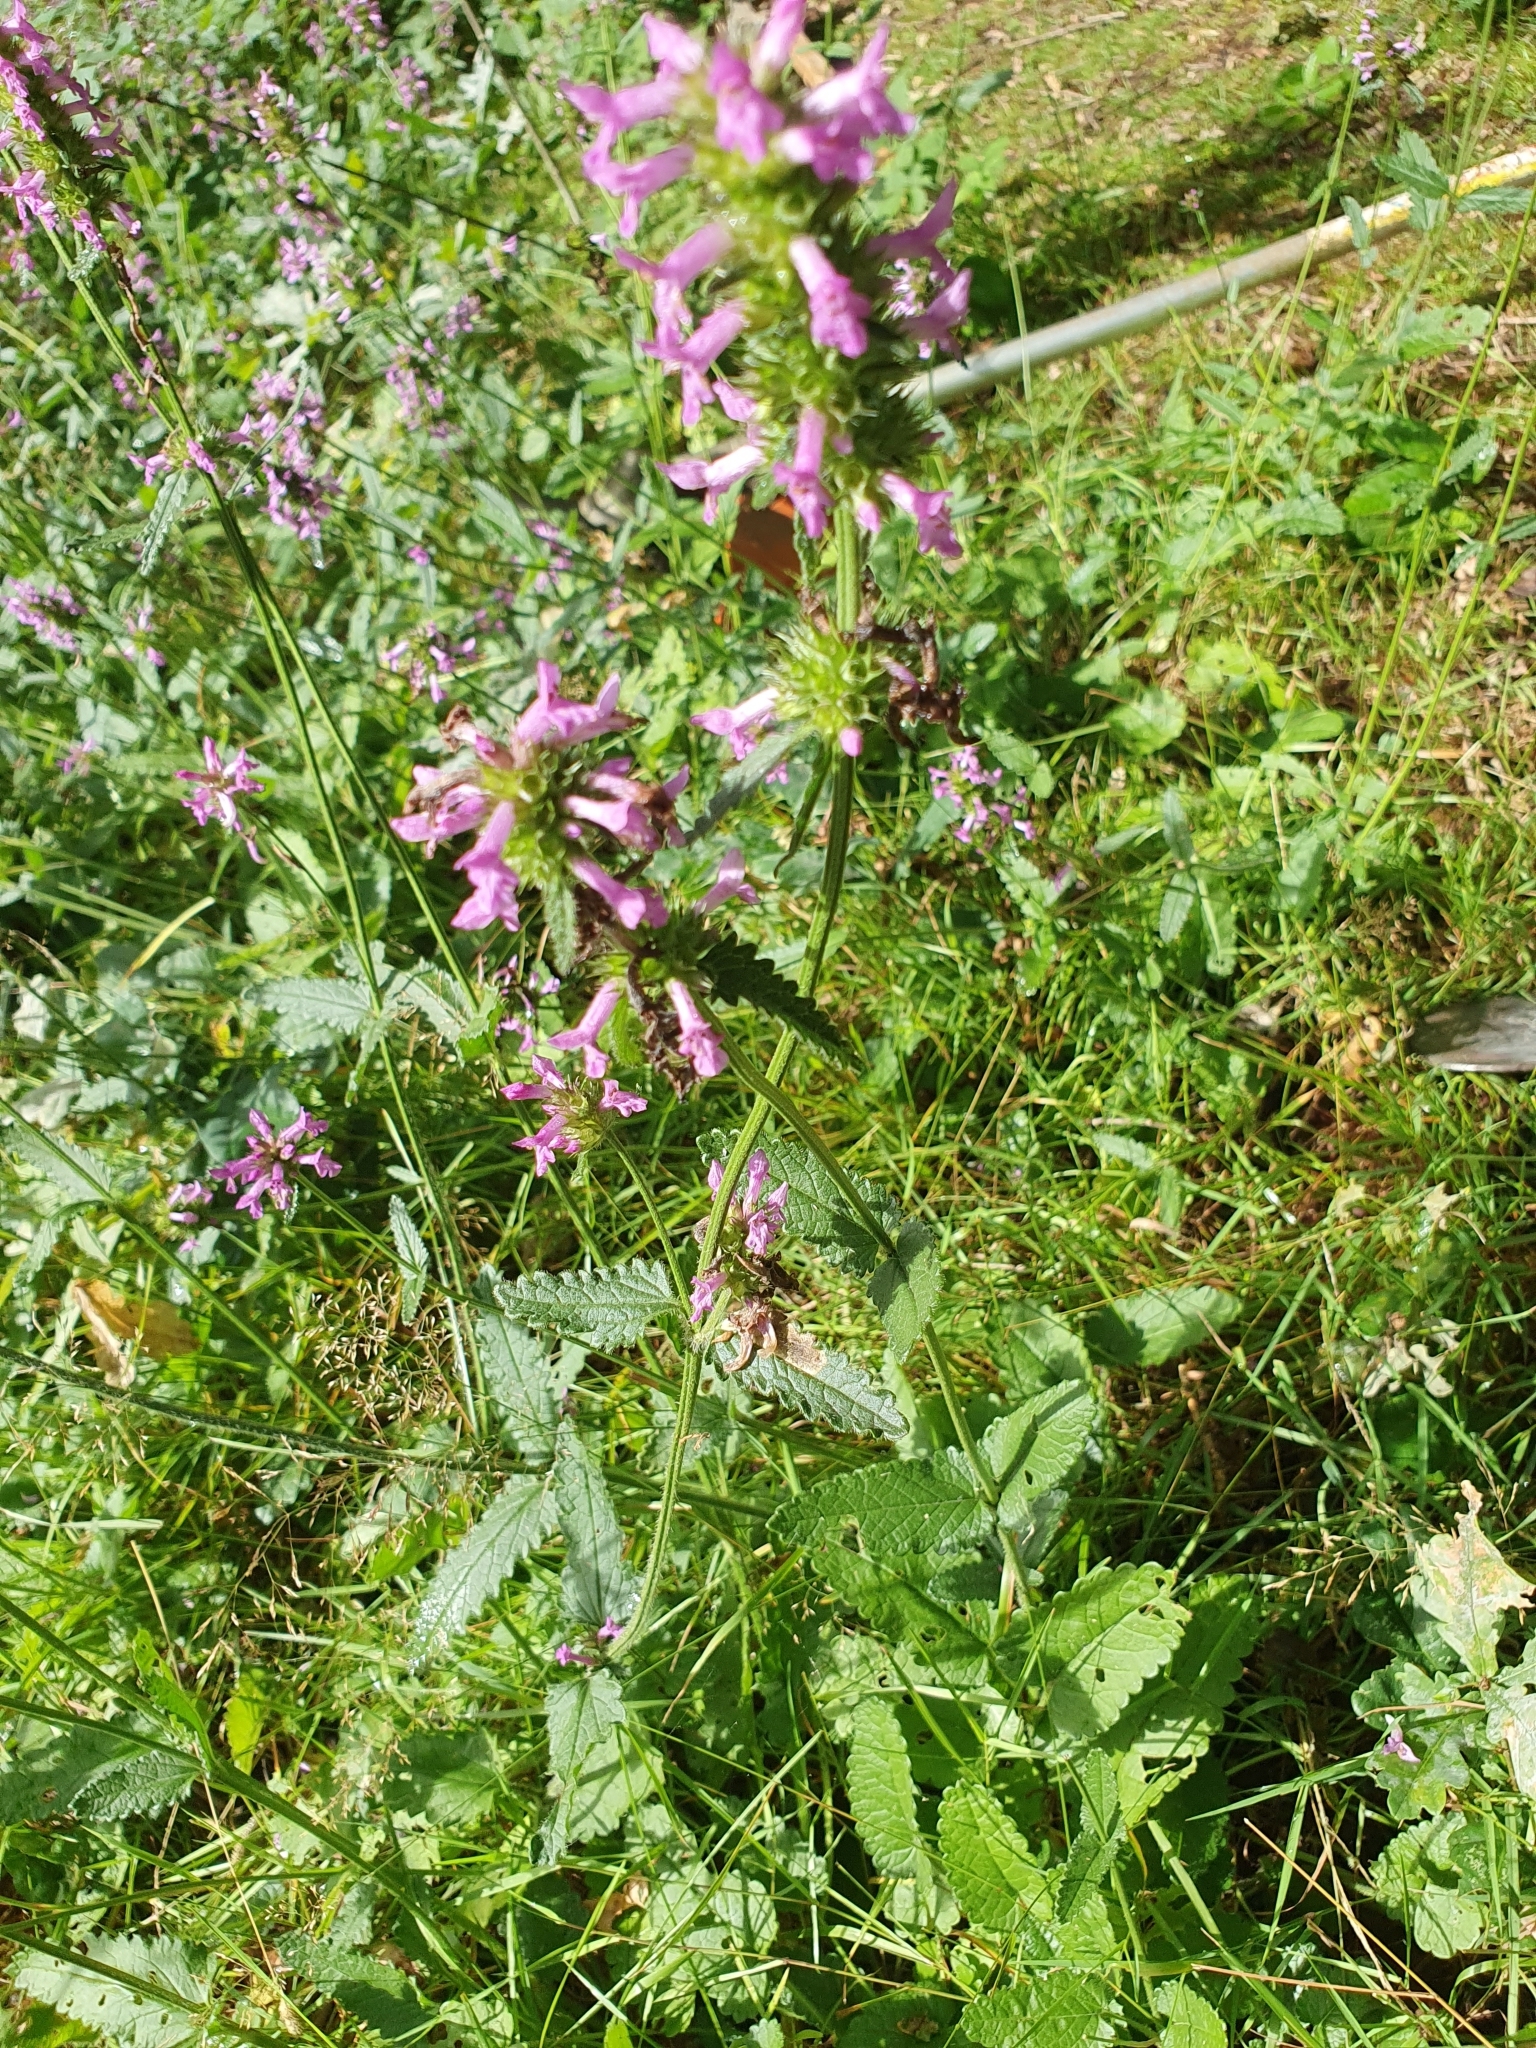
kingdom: Plantae
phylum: Tracheophyta
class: Magnoliopsida
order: Lamiales
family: Lamiaceae
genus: Betonica
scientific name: Betonica officinalis
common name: Bishop's-wort
